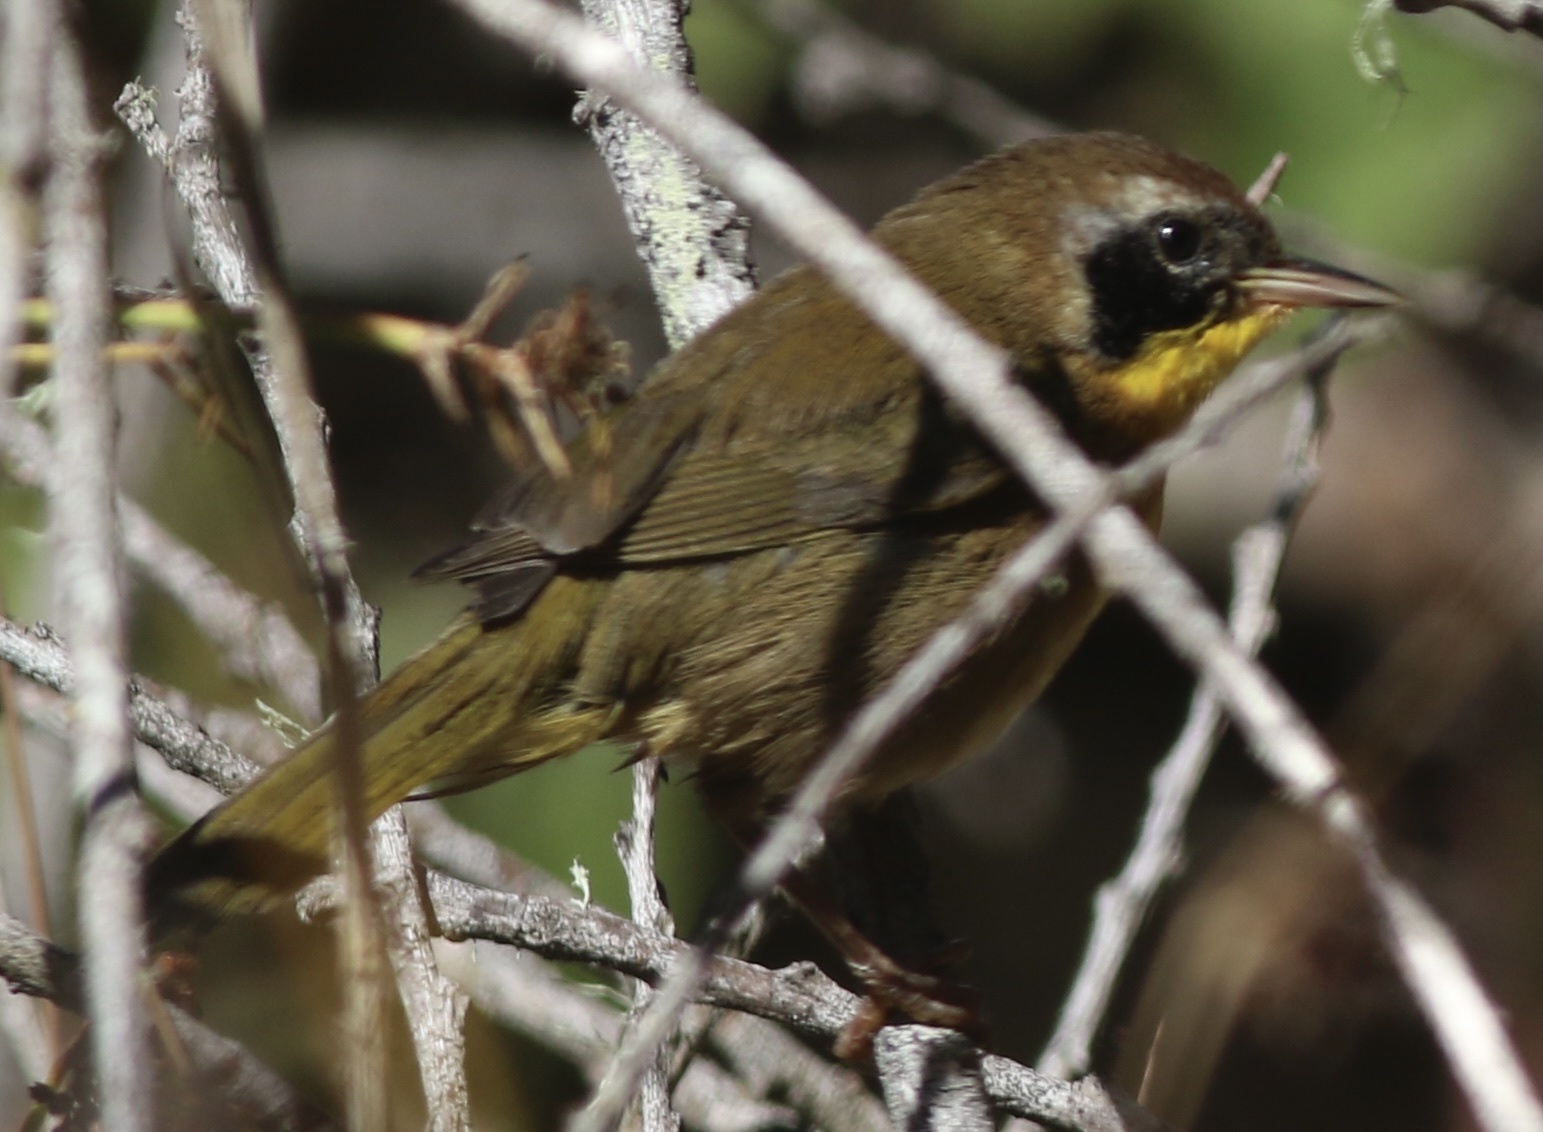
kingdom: Animalia
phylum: Chordata
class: Aves
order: Passeriformes
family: Parulidae
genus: Geothlypis
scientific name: Geothlypis trichas
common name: Common yellowthroat
